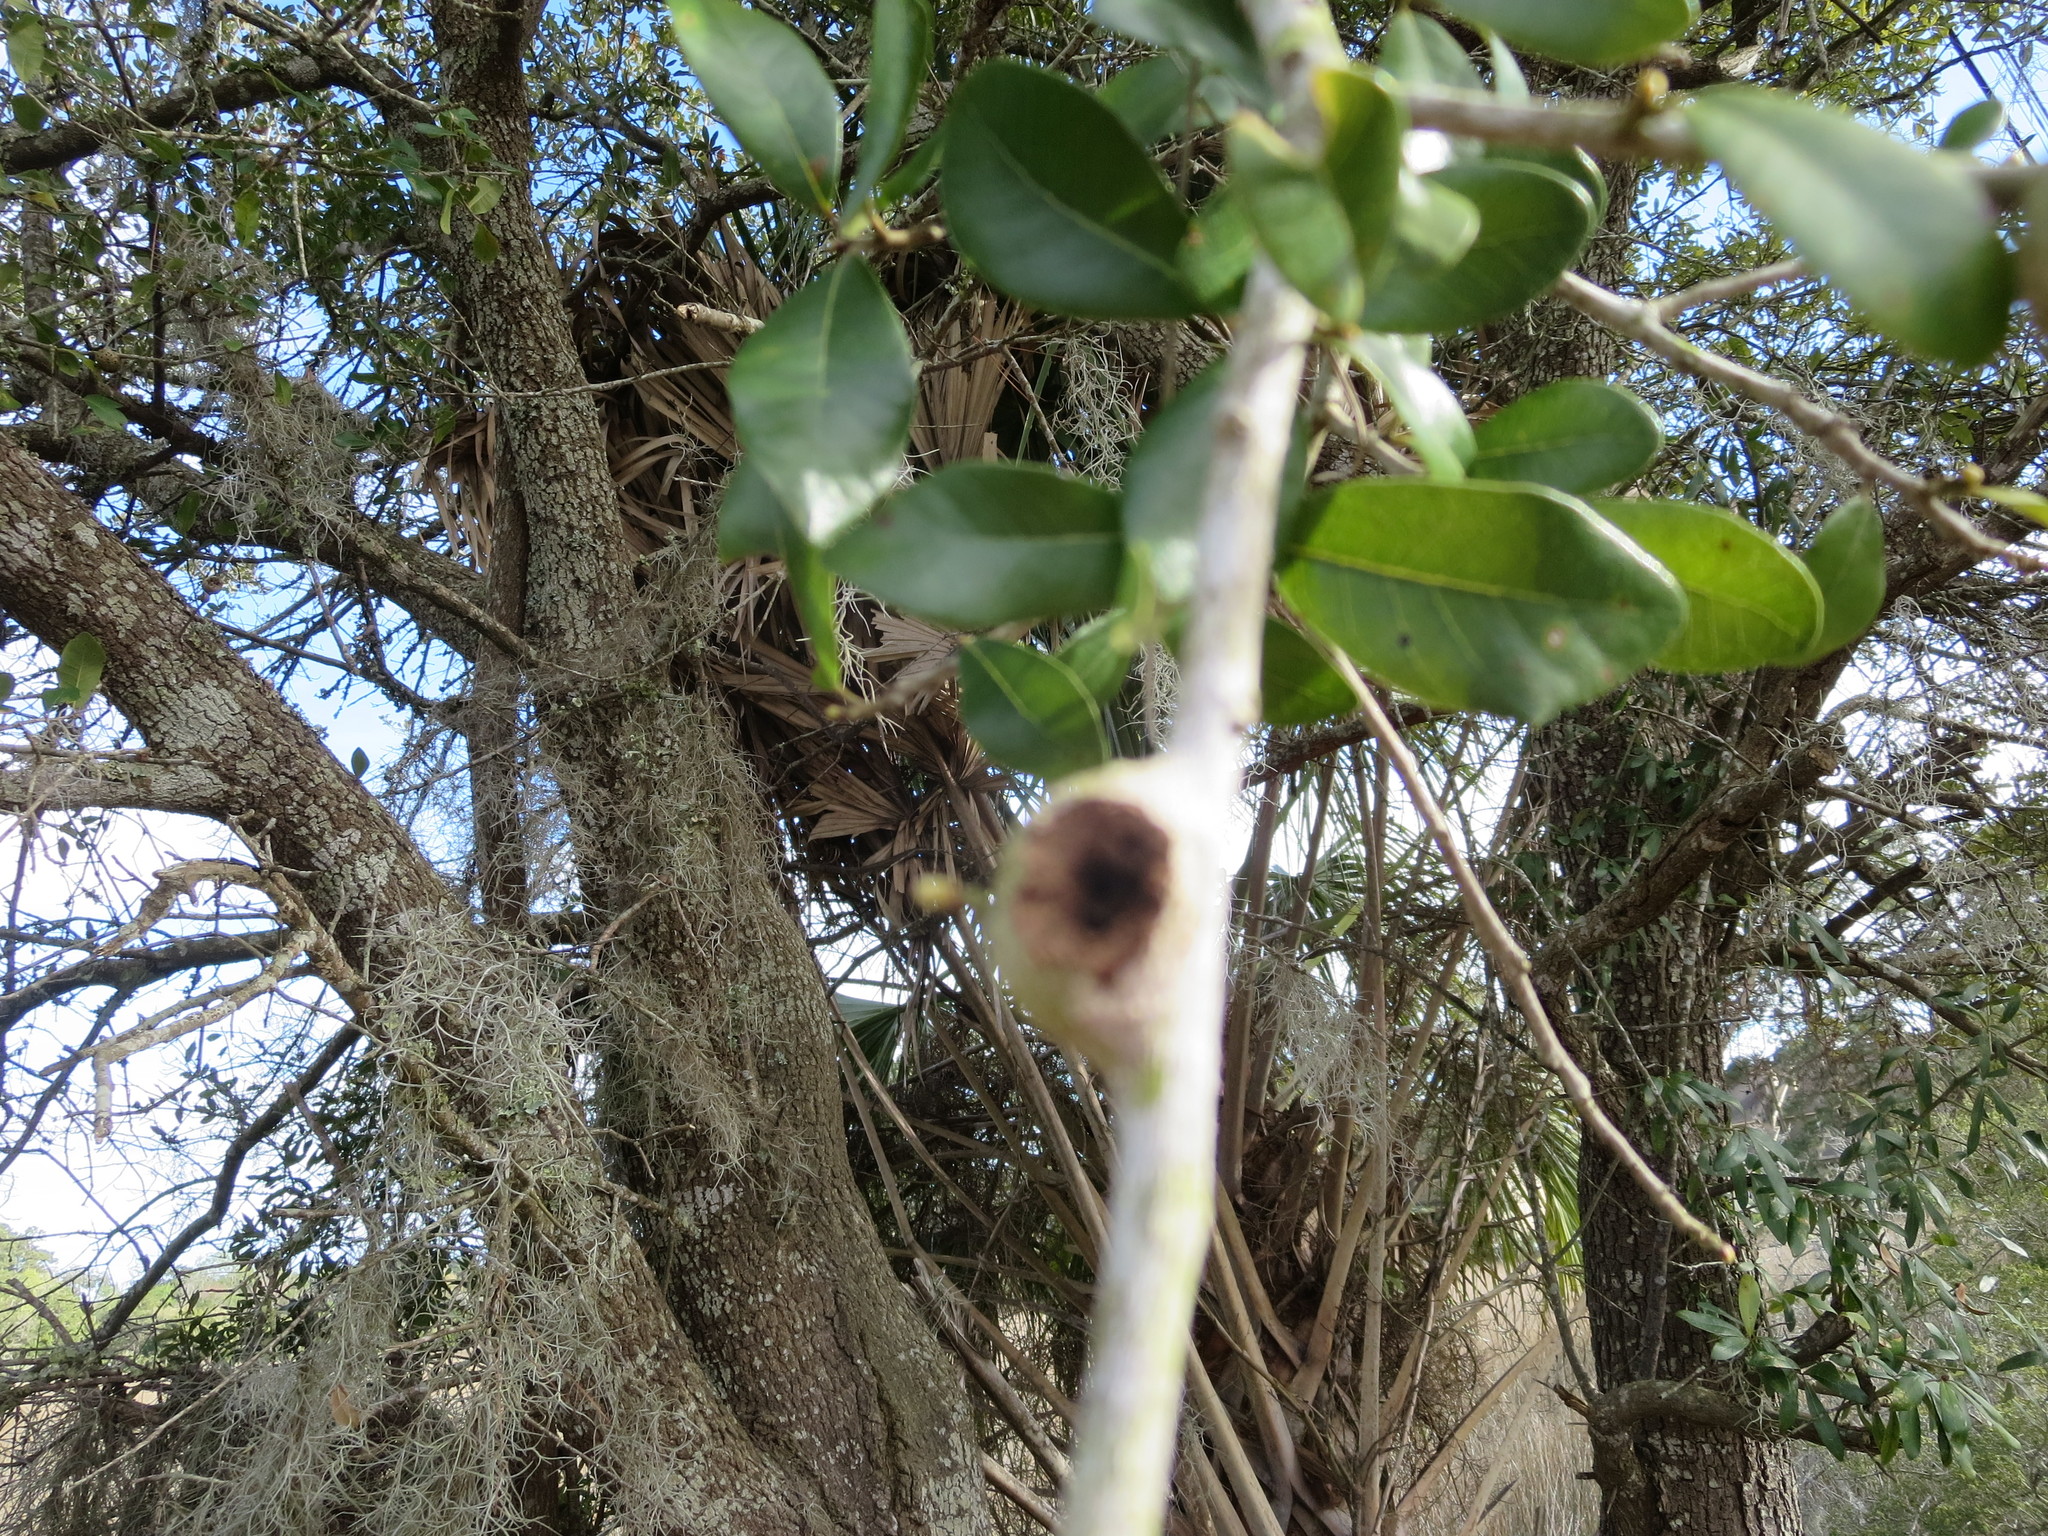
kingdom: Animalia
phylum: Arthropoda
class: Insecta
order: Hymenoptera
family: Cynipidae
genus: Callirhytis
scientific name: Callirhytis
